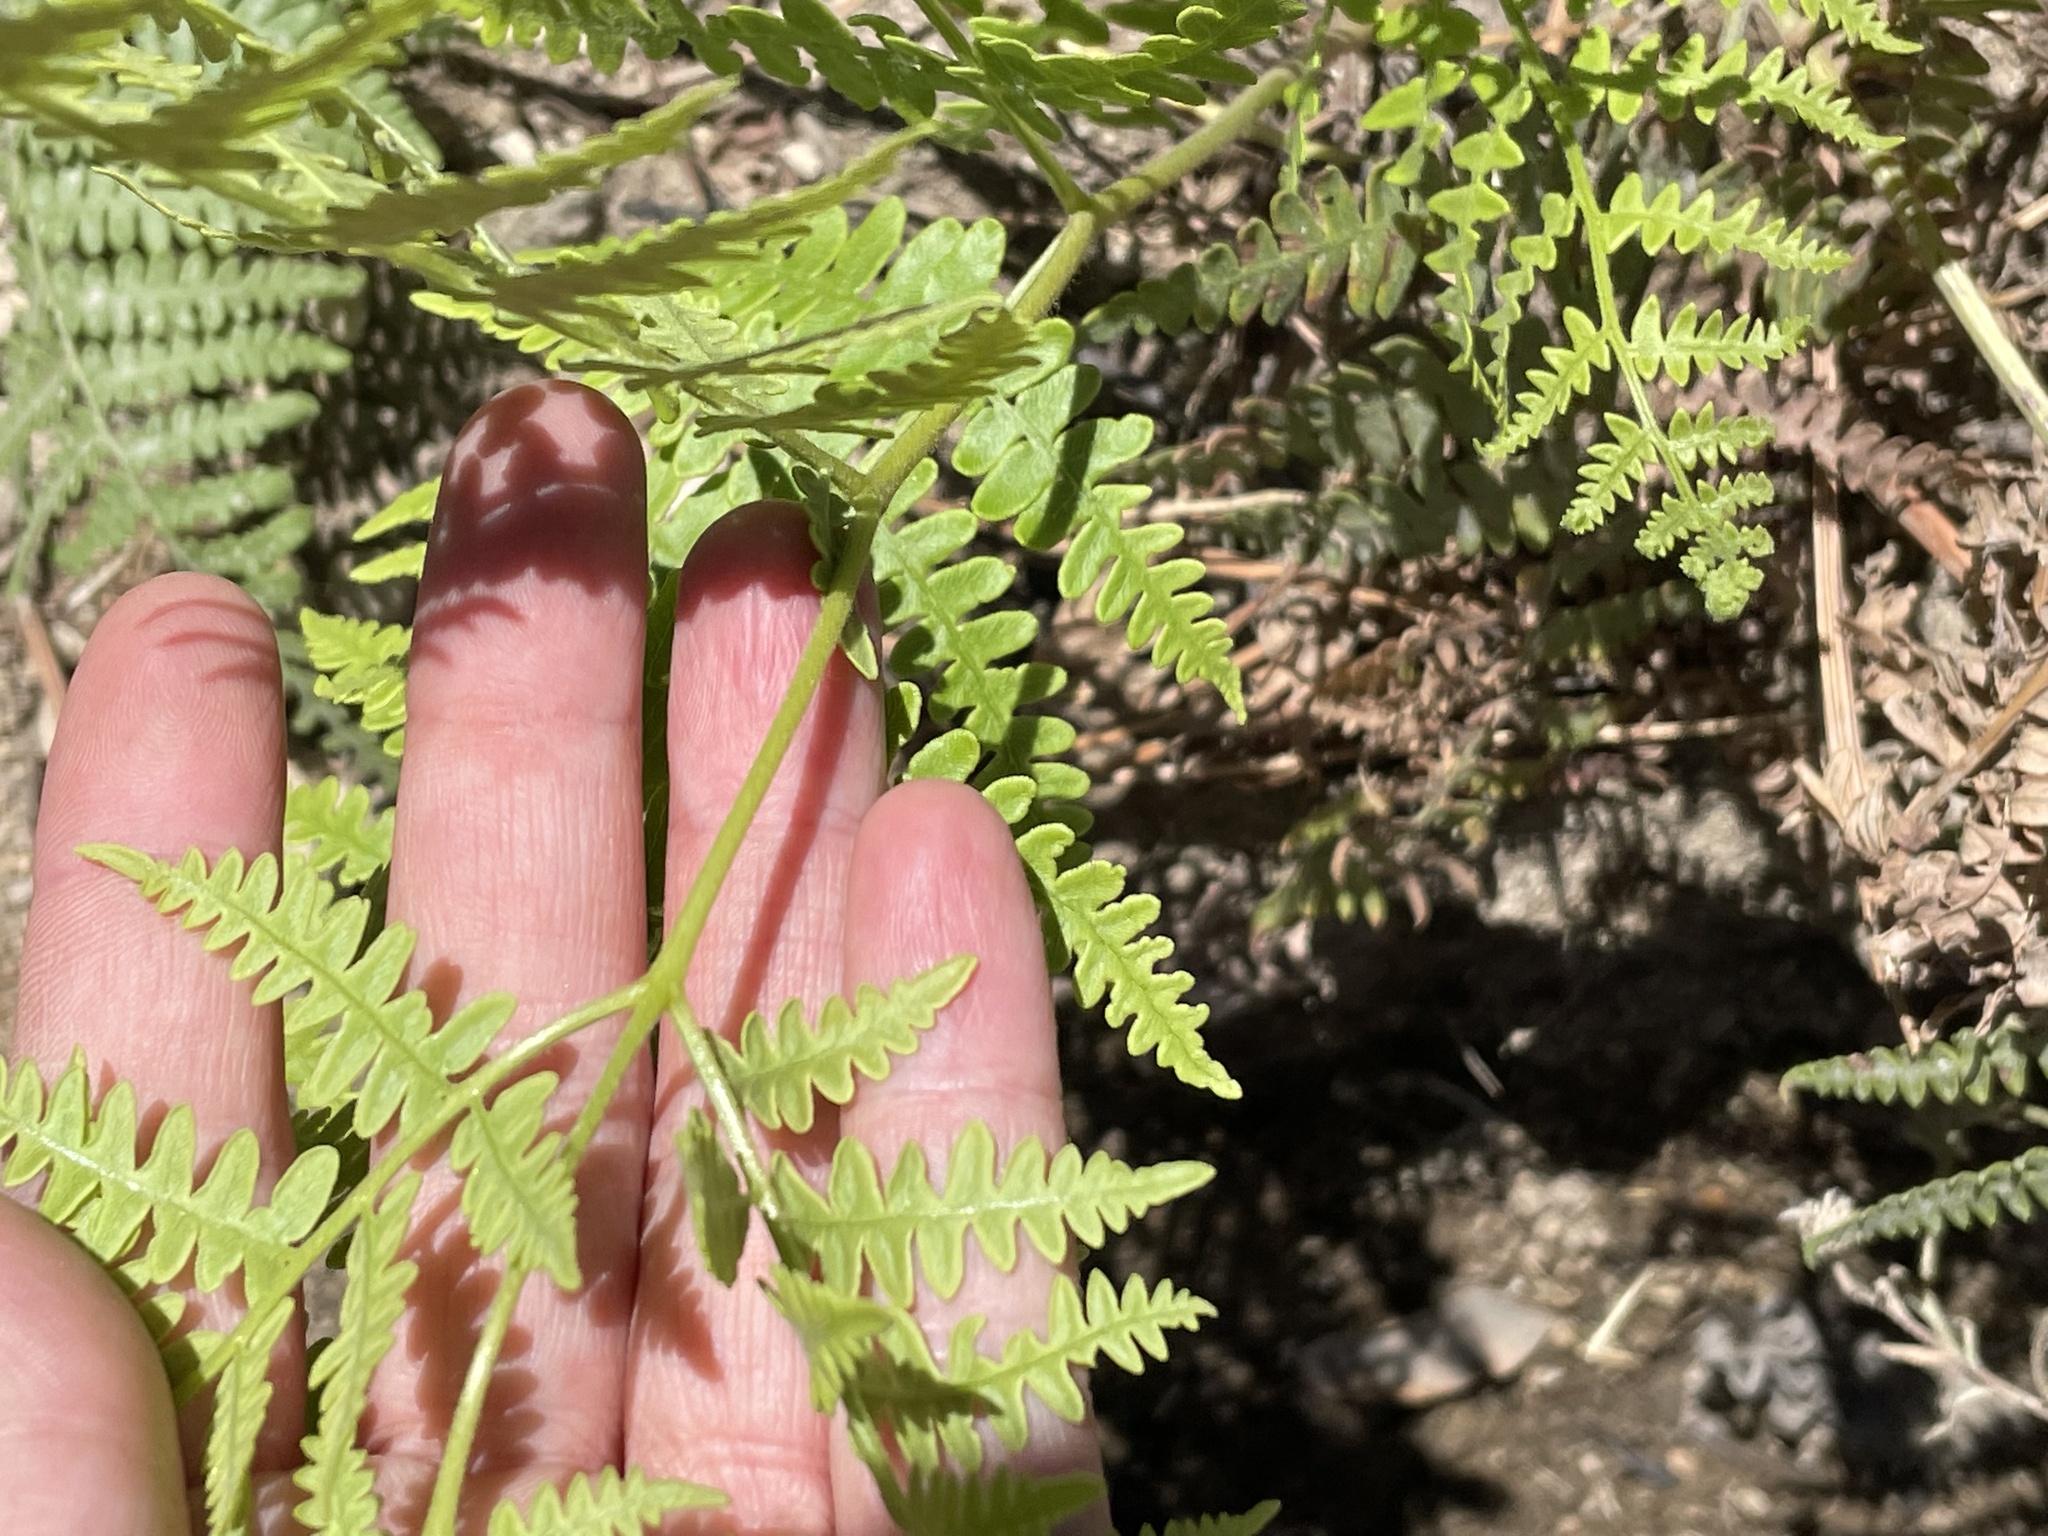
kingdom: Plantae
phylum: Tracheophyta
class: Polypodiopsida
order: Polypodiales
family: Dennstaedtiaceae
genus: Pteridium
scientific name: Pteridium aquilinum
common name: Bracken
